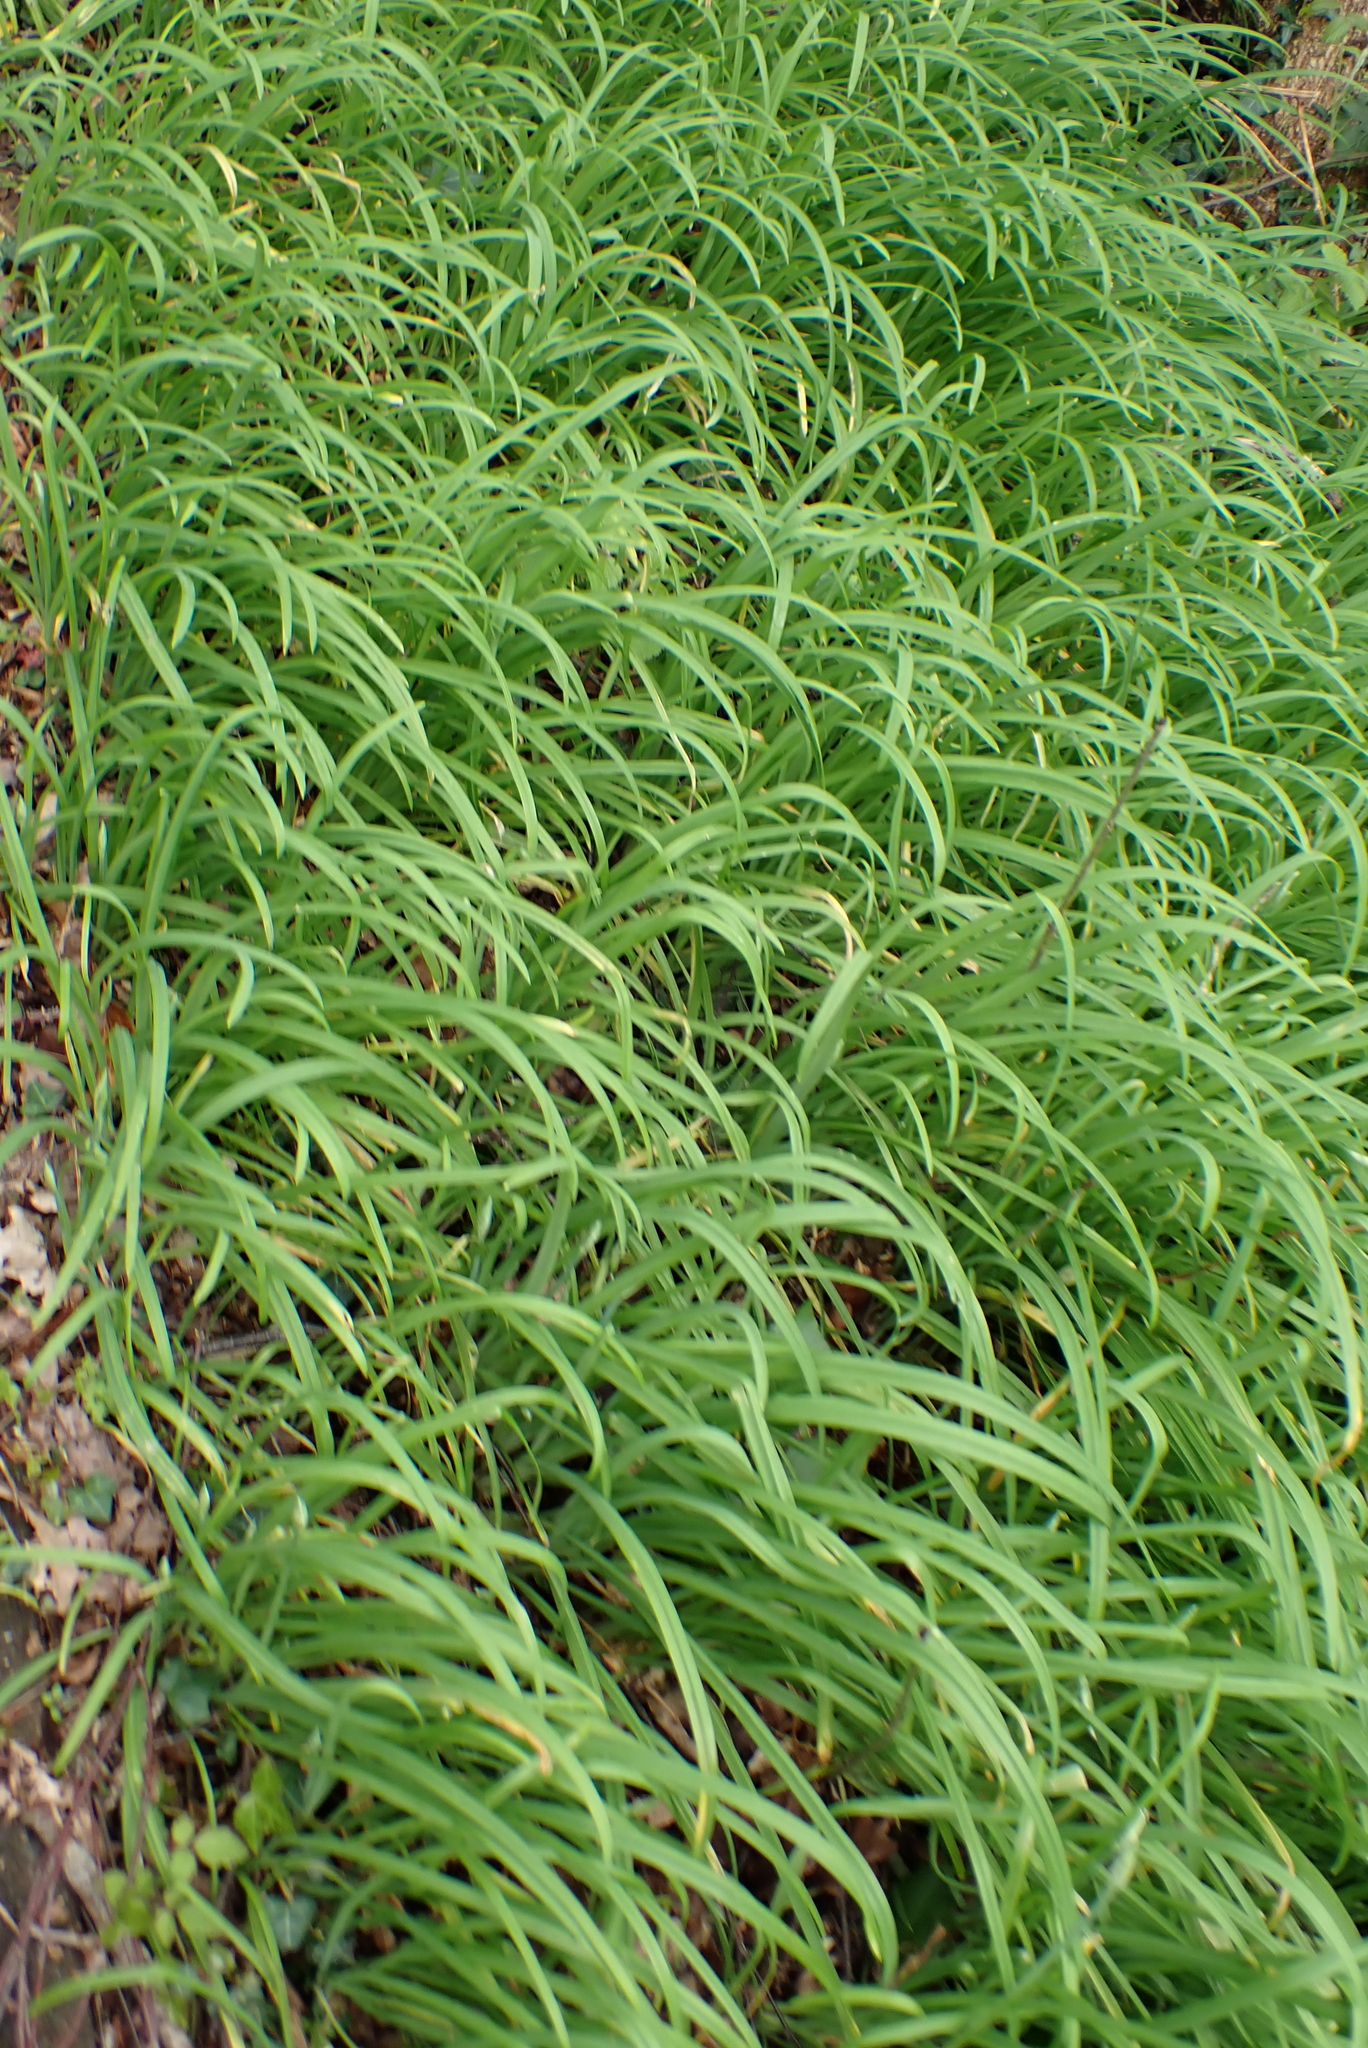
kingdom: Plantae
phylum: Tracheophyta
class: Liliopsida
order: Asparagales
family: Amaryllidaceae
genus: Allium
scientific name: Allium triquetrum
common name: Three-cornered garlic
